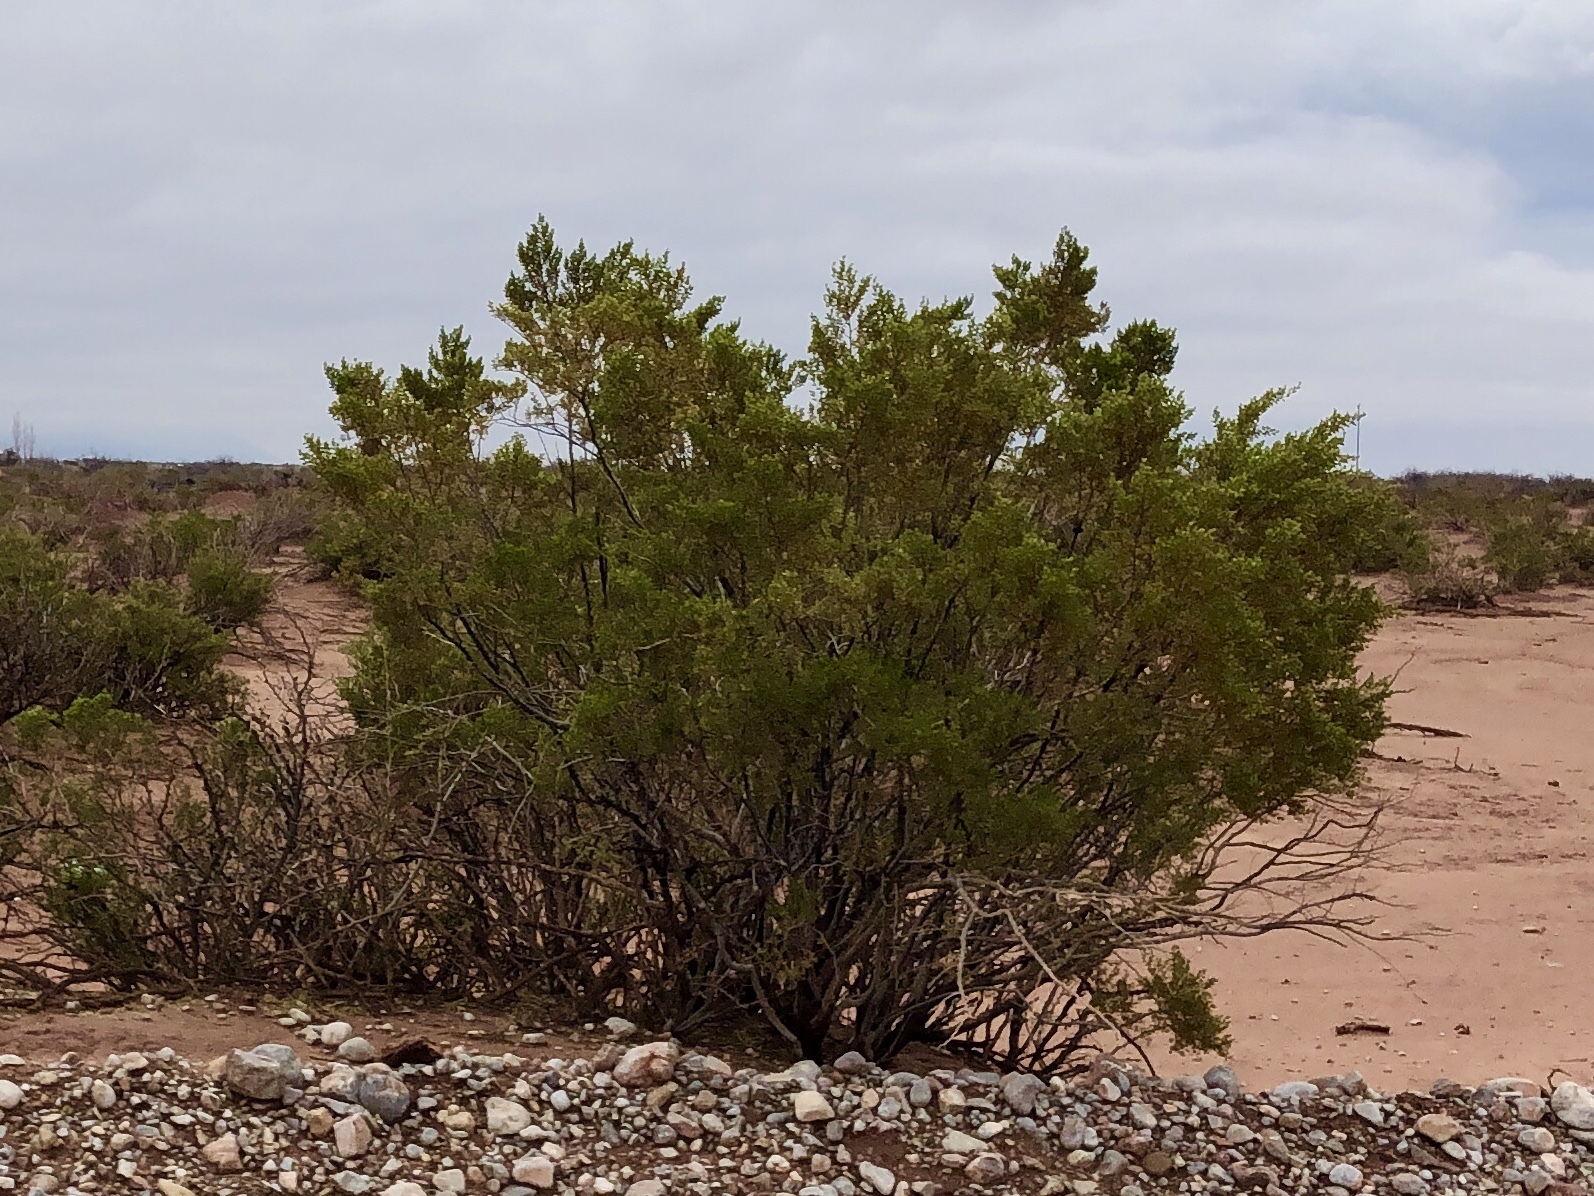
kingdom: Plantae
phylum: Tracheophyta
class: Magnoliopsida
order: Zygophyllales
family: Zygophyllaceae
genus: Larrea
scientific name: Larrea tridentata
